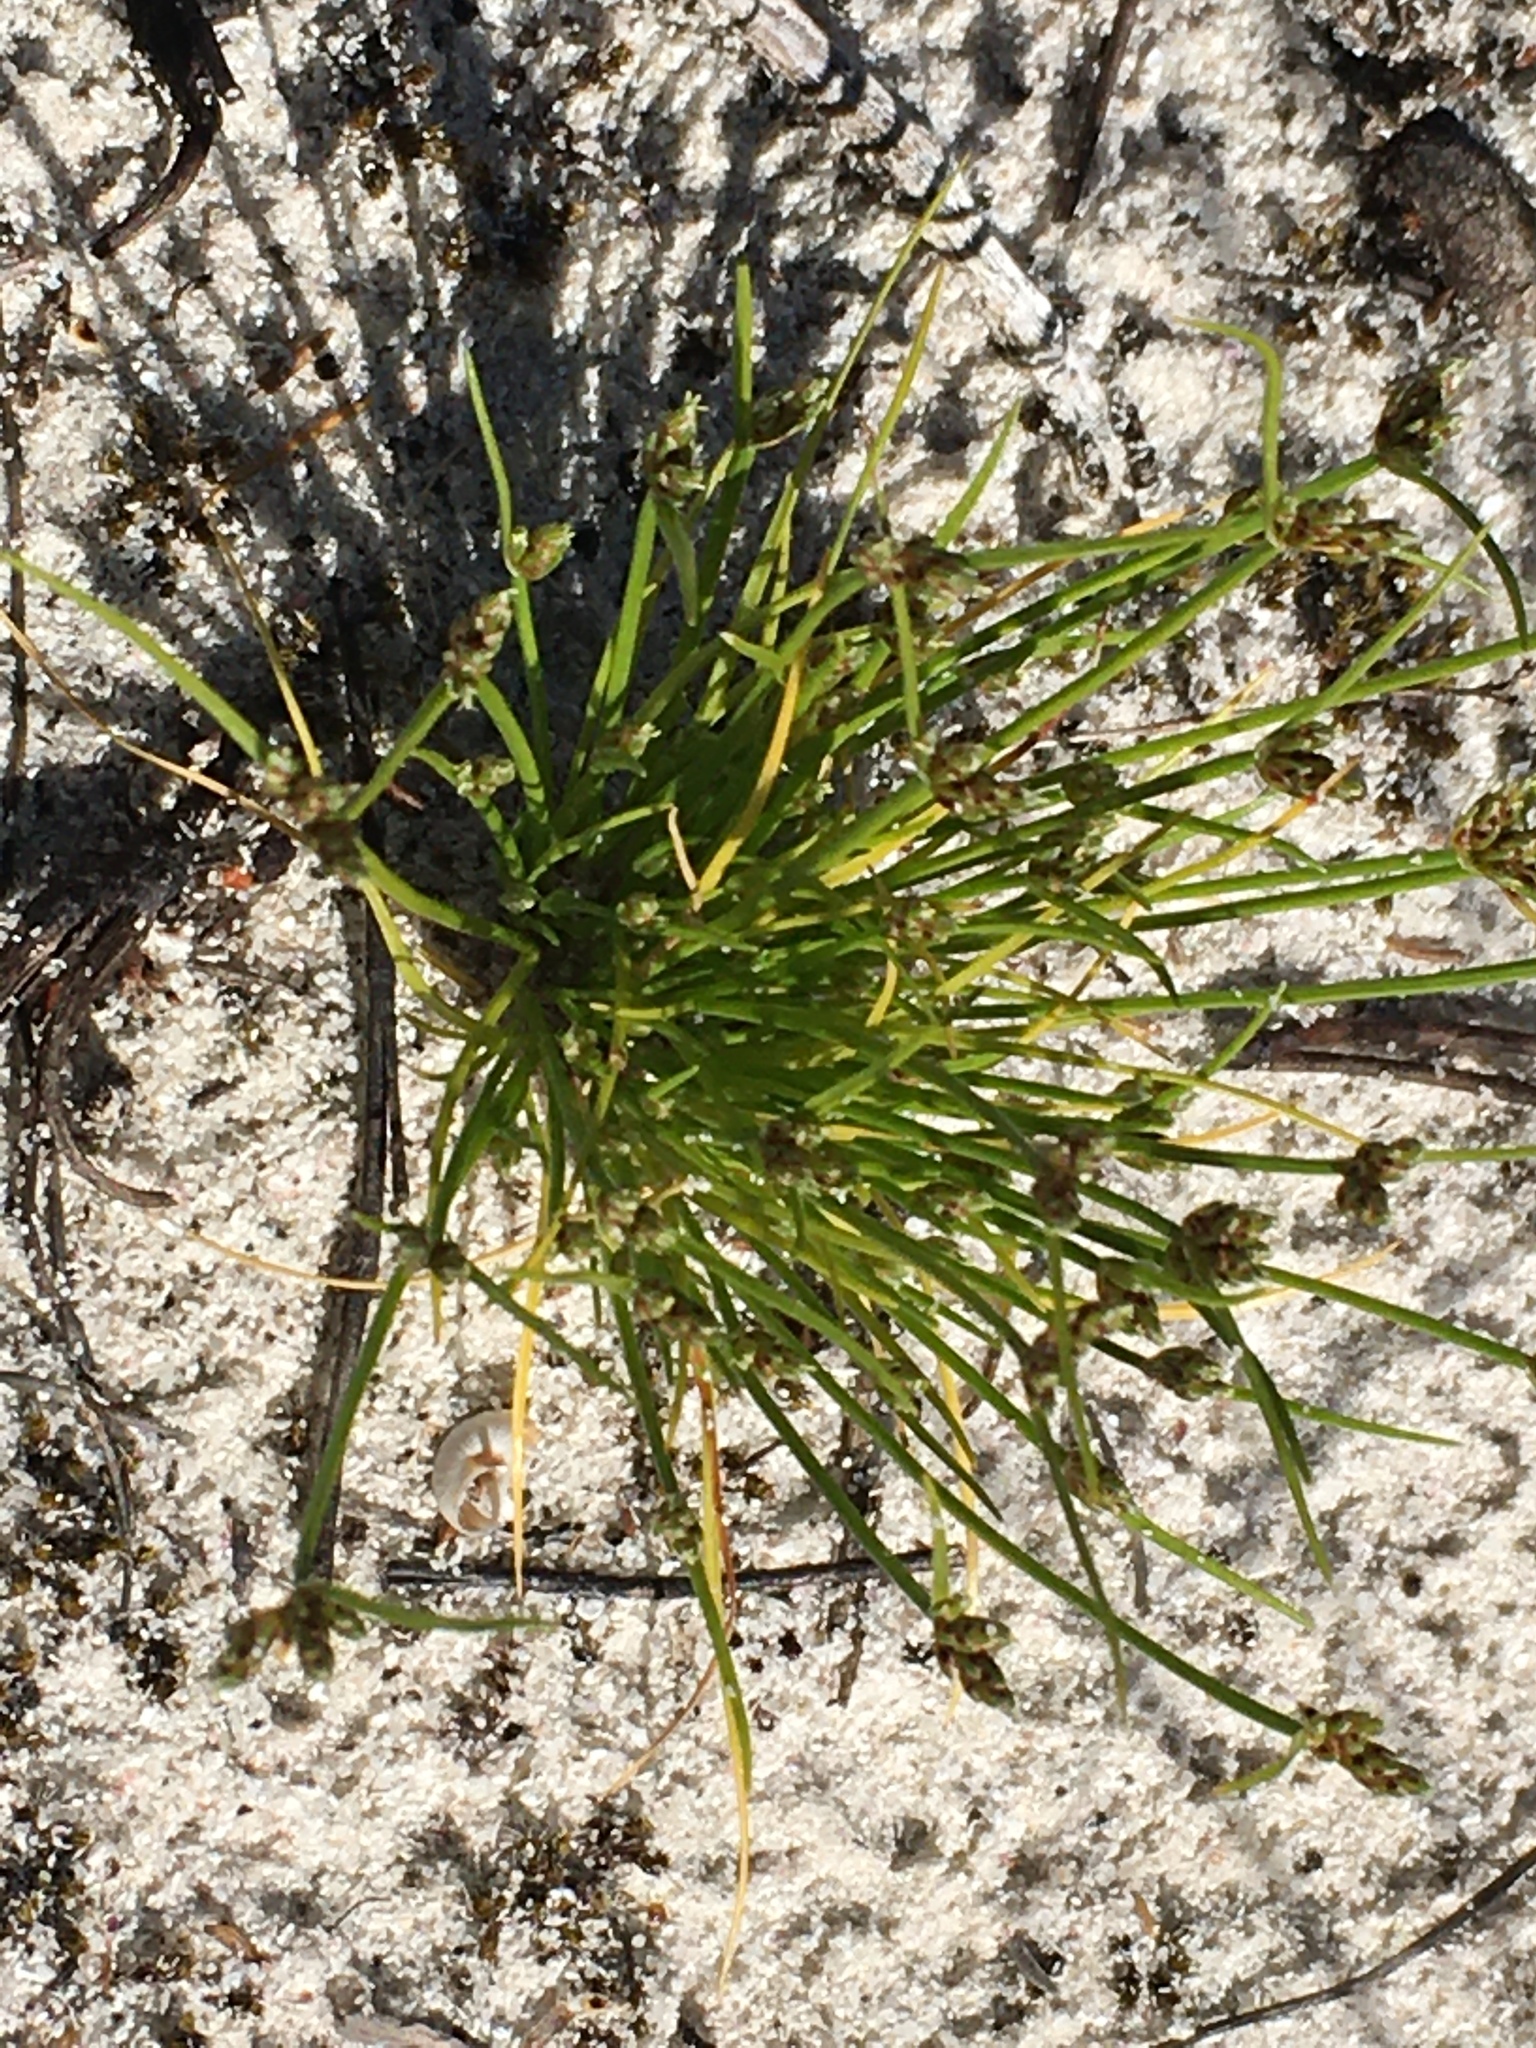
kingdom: Plantae
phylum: Tracheophyta
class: Liliopsida
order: Poales
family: Cyperaceae
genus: Isolepis
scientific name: Isolepis marginata
